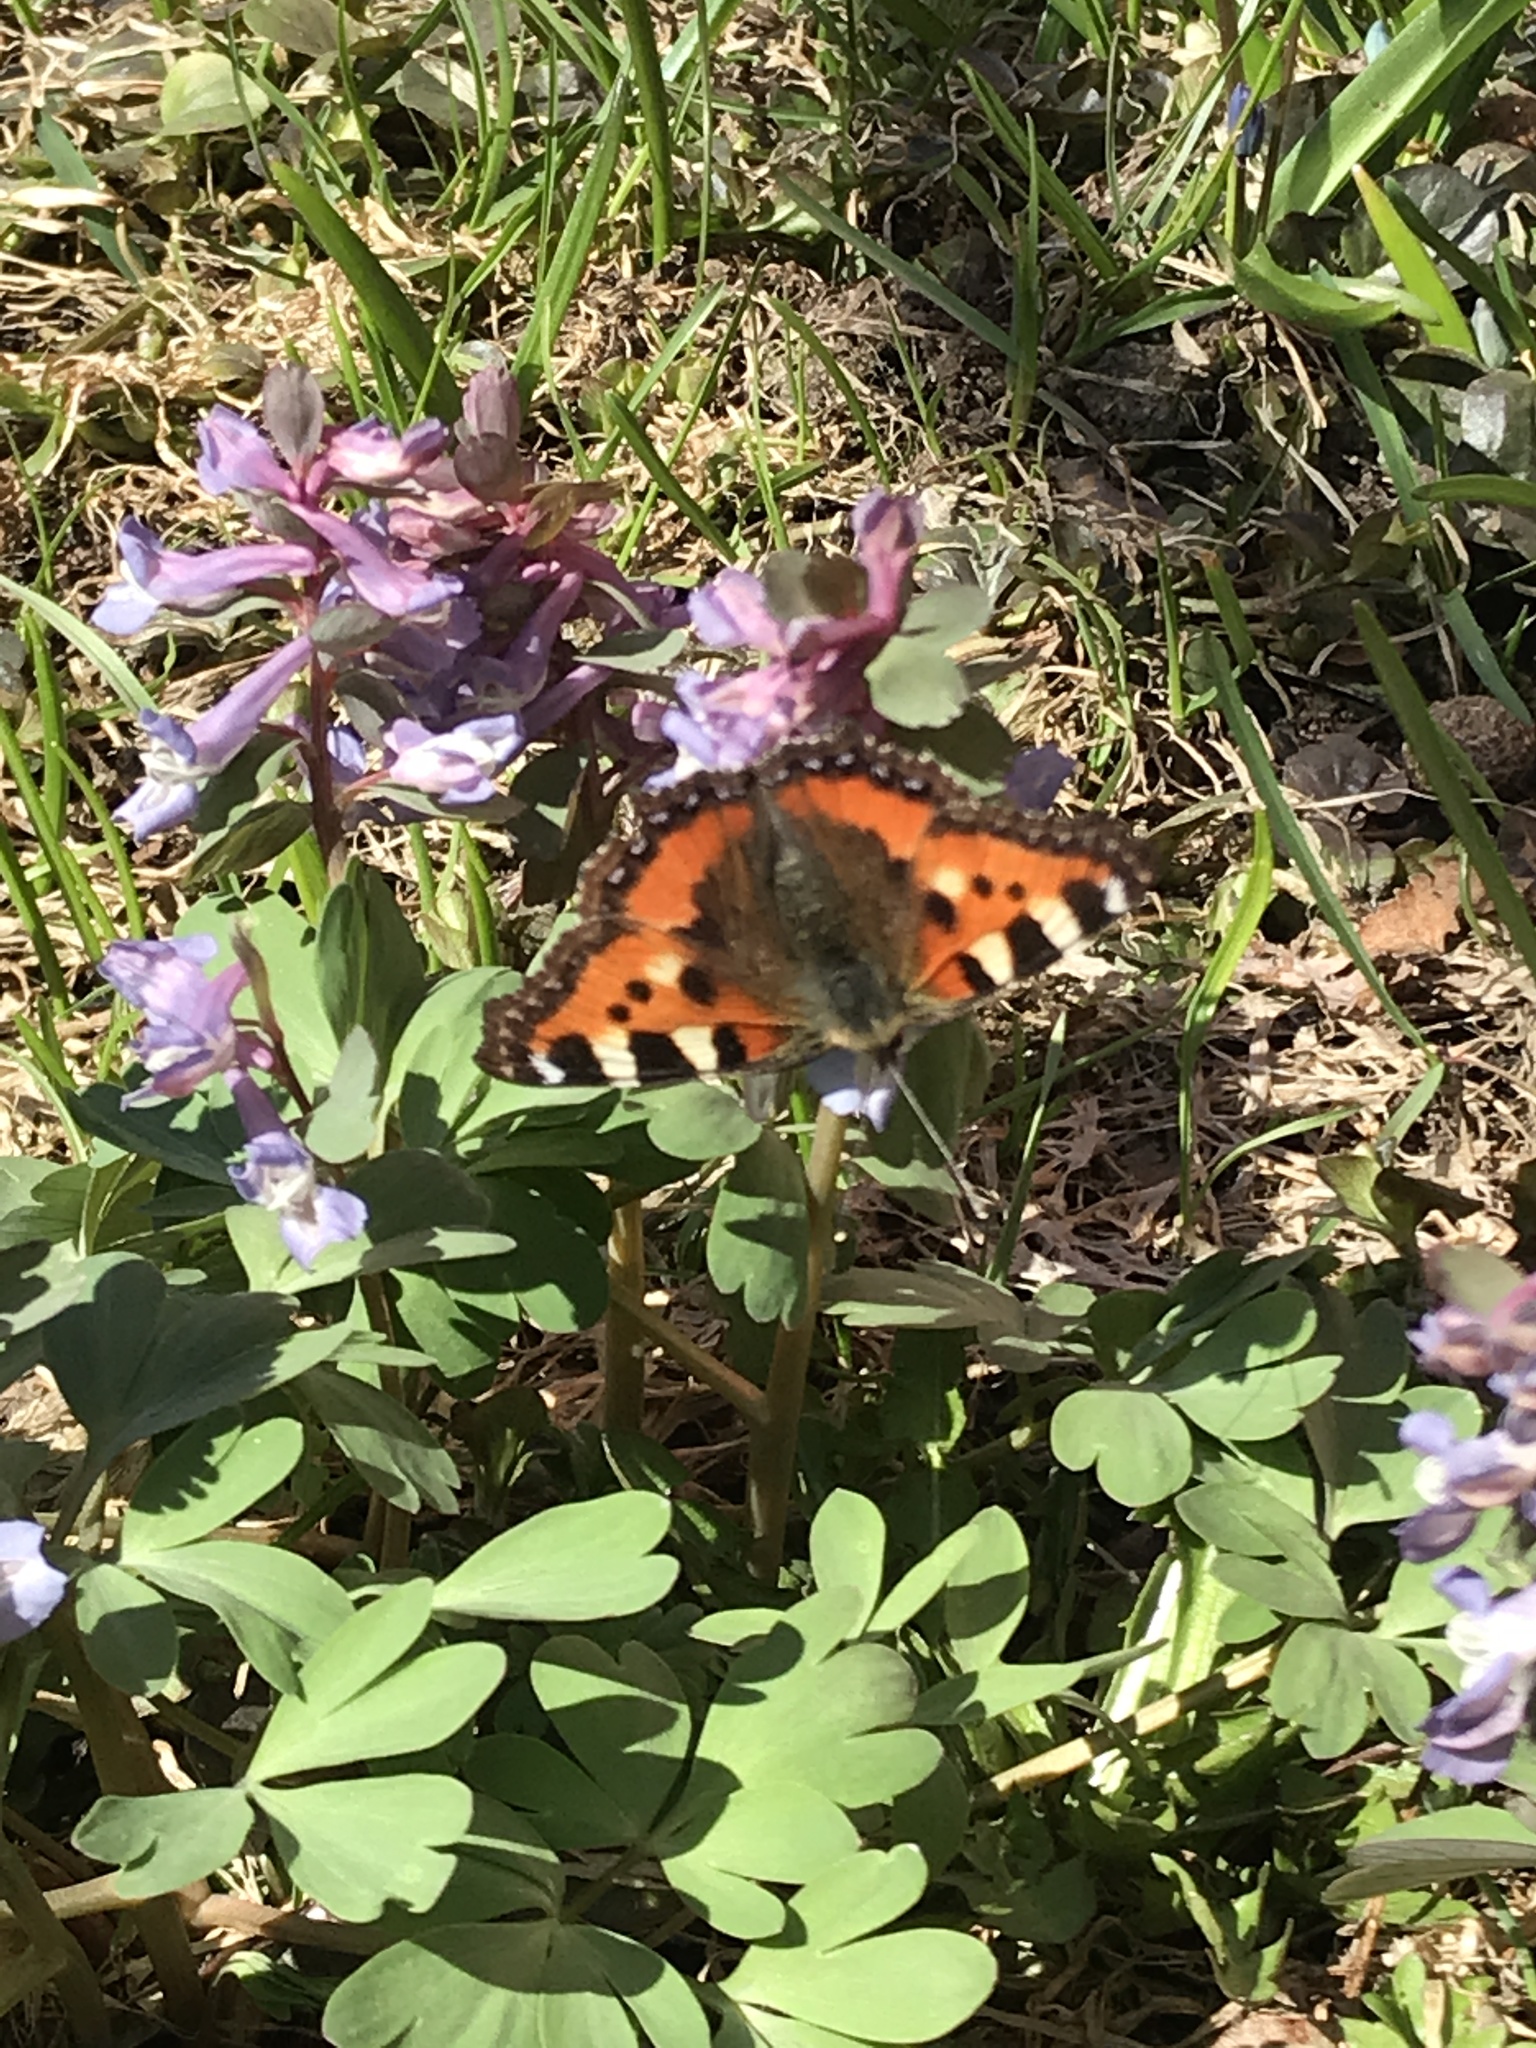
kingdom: Animalia
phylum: Arthropoda
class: Insecta
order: Lepidoptera
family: Nymphalidae
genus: Aglais
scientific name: Aglais urticae
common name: Small tortoiseshell
